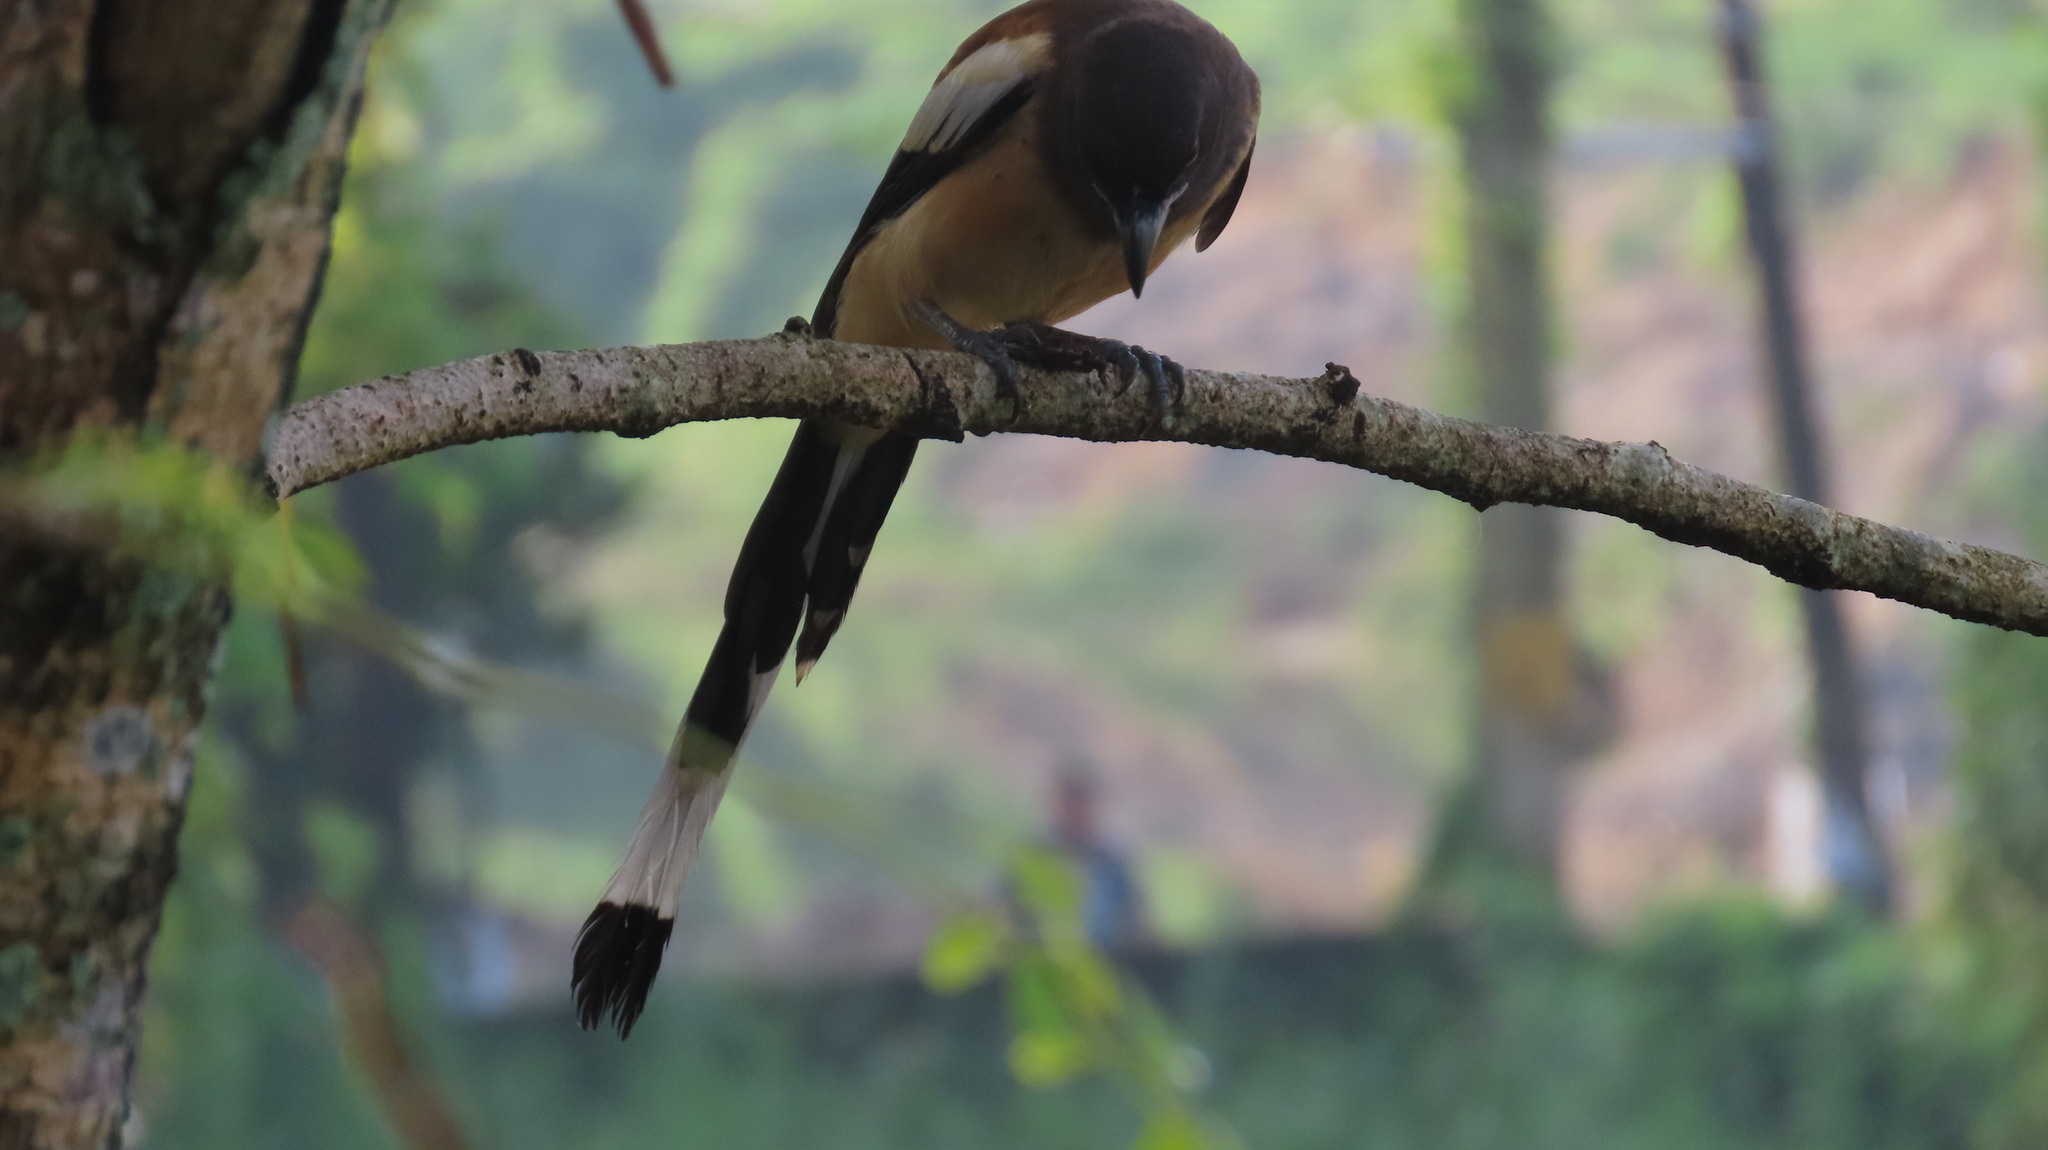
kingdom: Animalia
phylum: Chordata
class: Aves
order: Passeriformes
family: Corvidae
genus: Dendrocitta
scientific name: Dendrocitta vagabunda
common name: Rufous treepie
